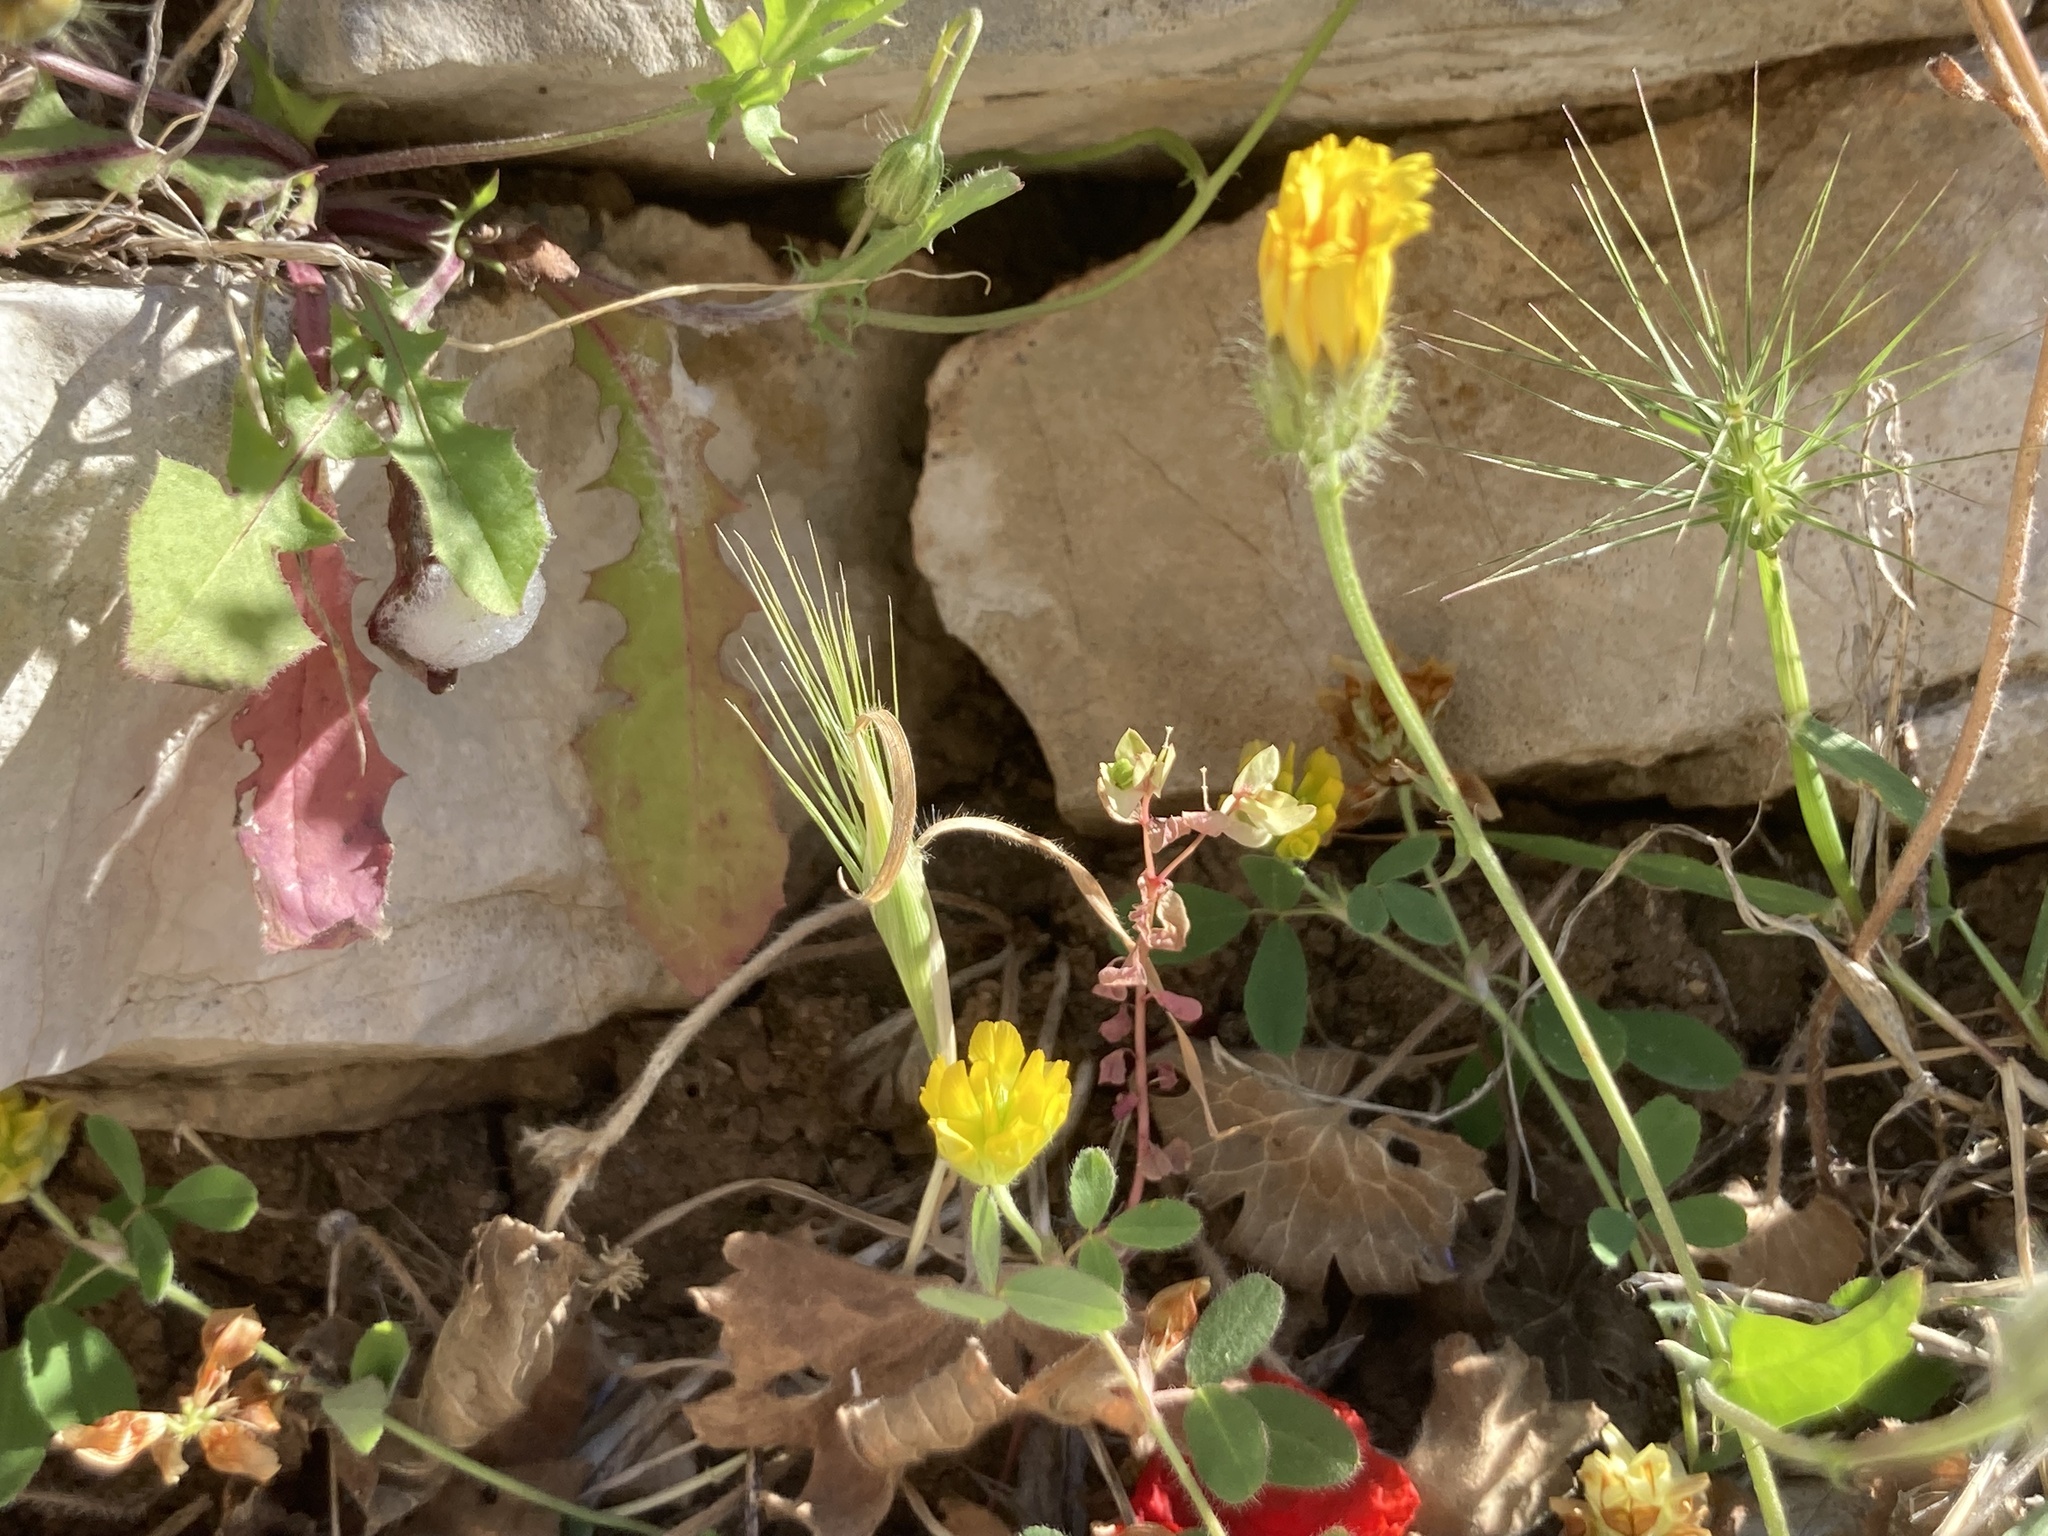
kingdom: Plantae
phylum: Tracheophyta
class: Magnoliopsida
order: Fabales
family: Fabaceae
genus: Trifolium
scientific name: Trifolium boissieri
